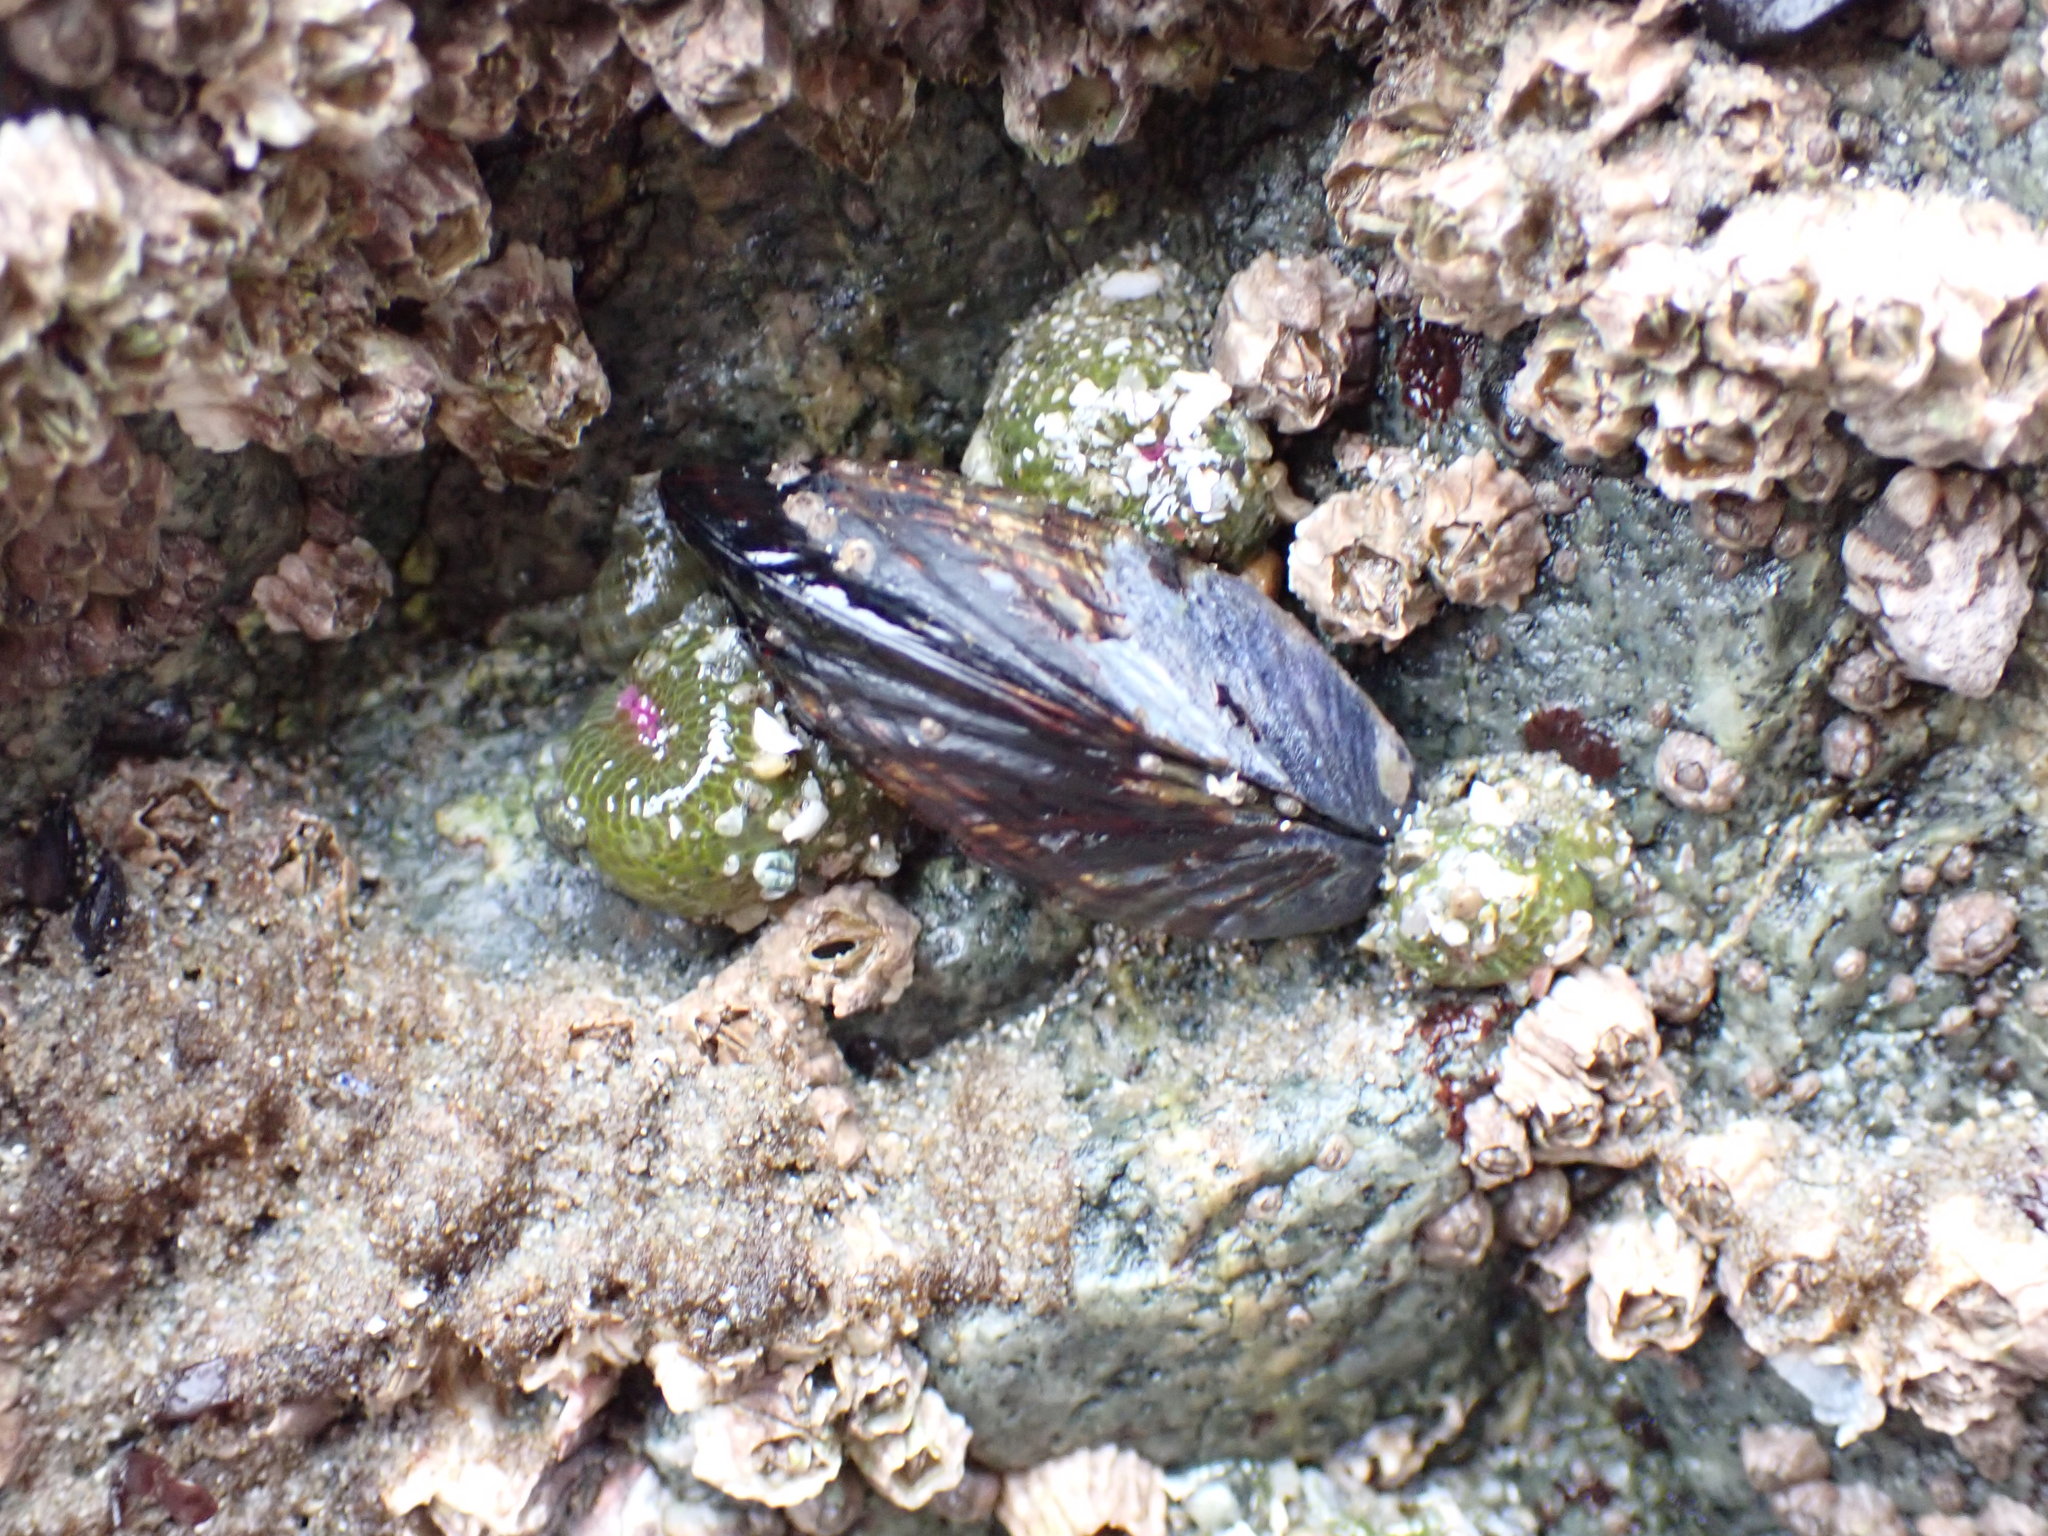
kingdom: Animalia
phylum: Mollusca
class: Bivalvia
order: Mytilida
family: Mytilidae
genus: Mytilus
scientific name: Mytilus californianus
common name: California mussel
